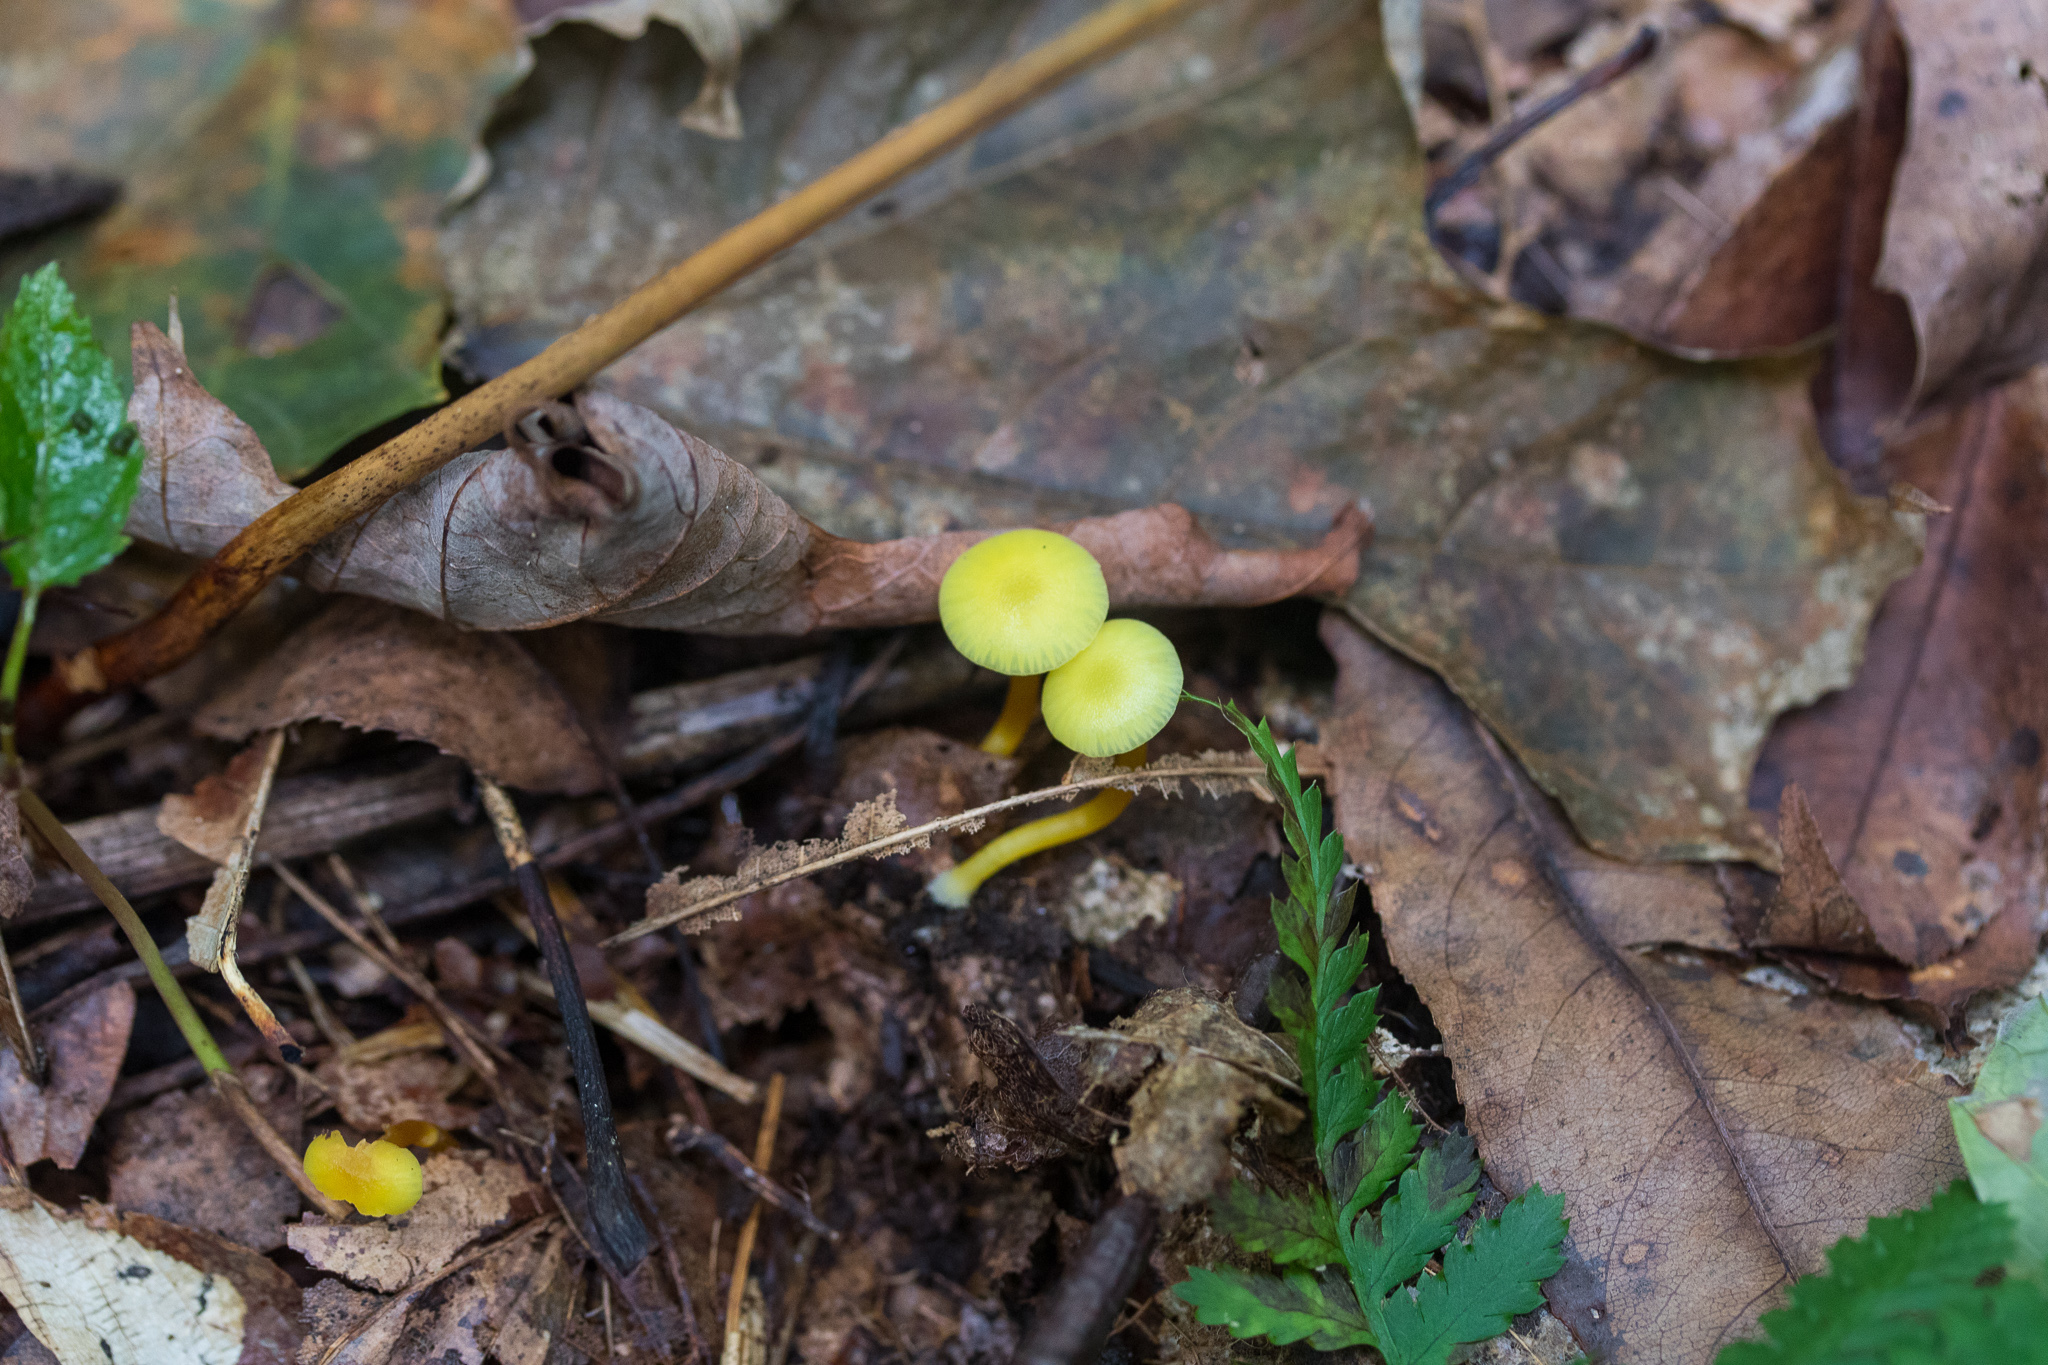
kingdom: Fungi
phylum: Basidiomycota
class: Agaricomycetes
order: Agaricales
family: Hygrophoraceae
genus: Gloioxanthomyces
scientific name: Gloioxanthomyces nitidus
